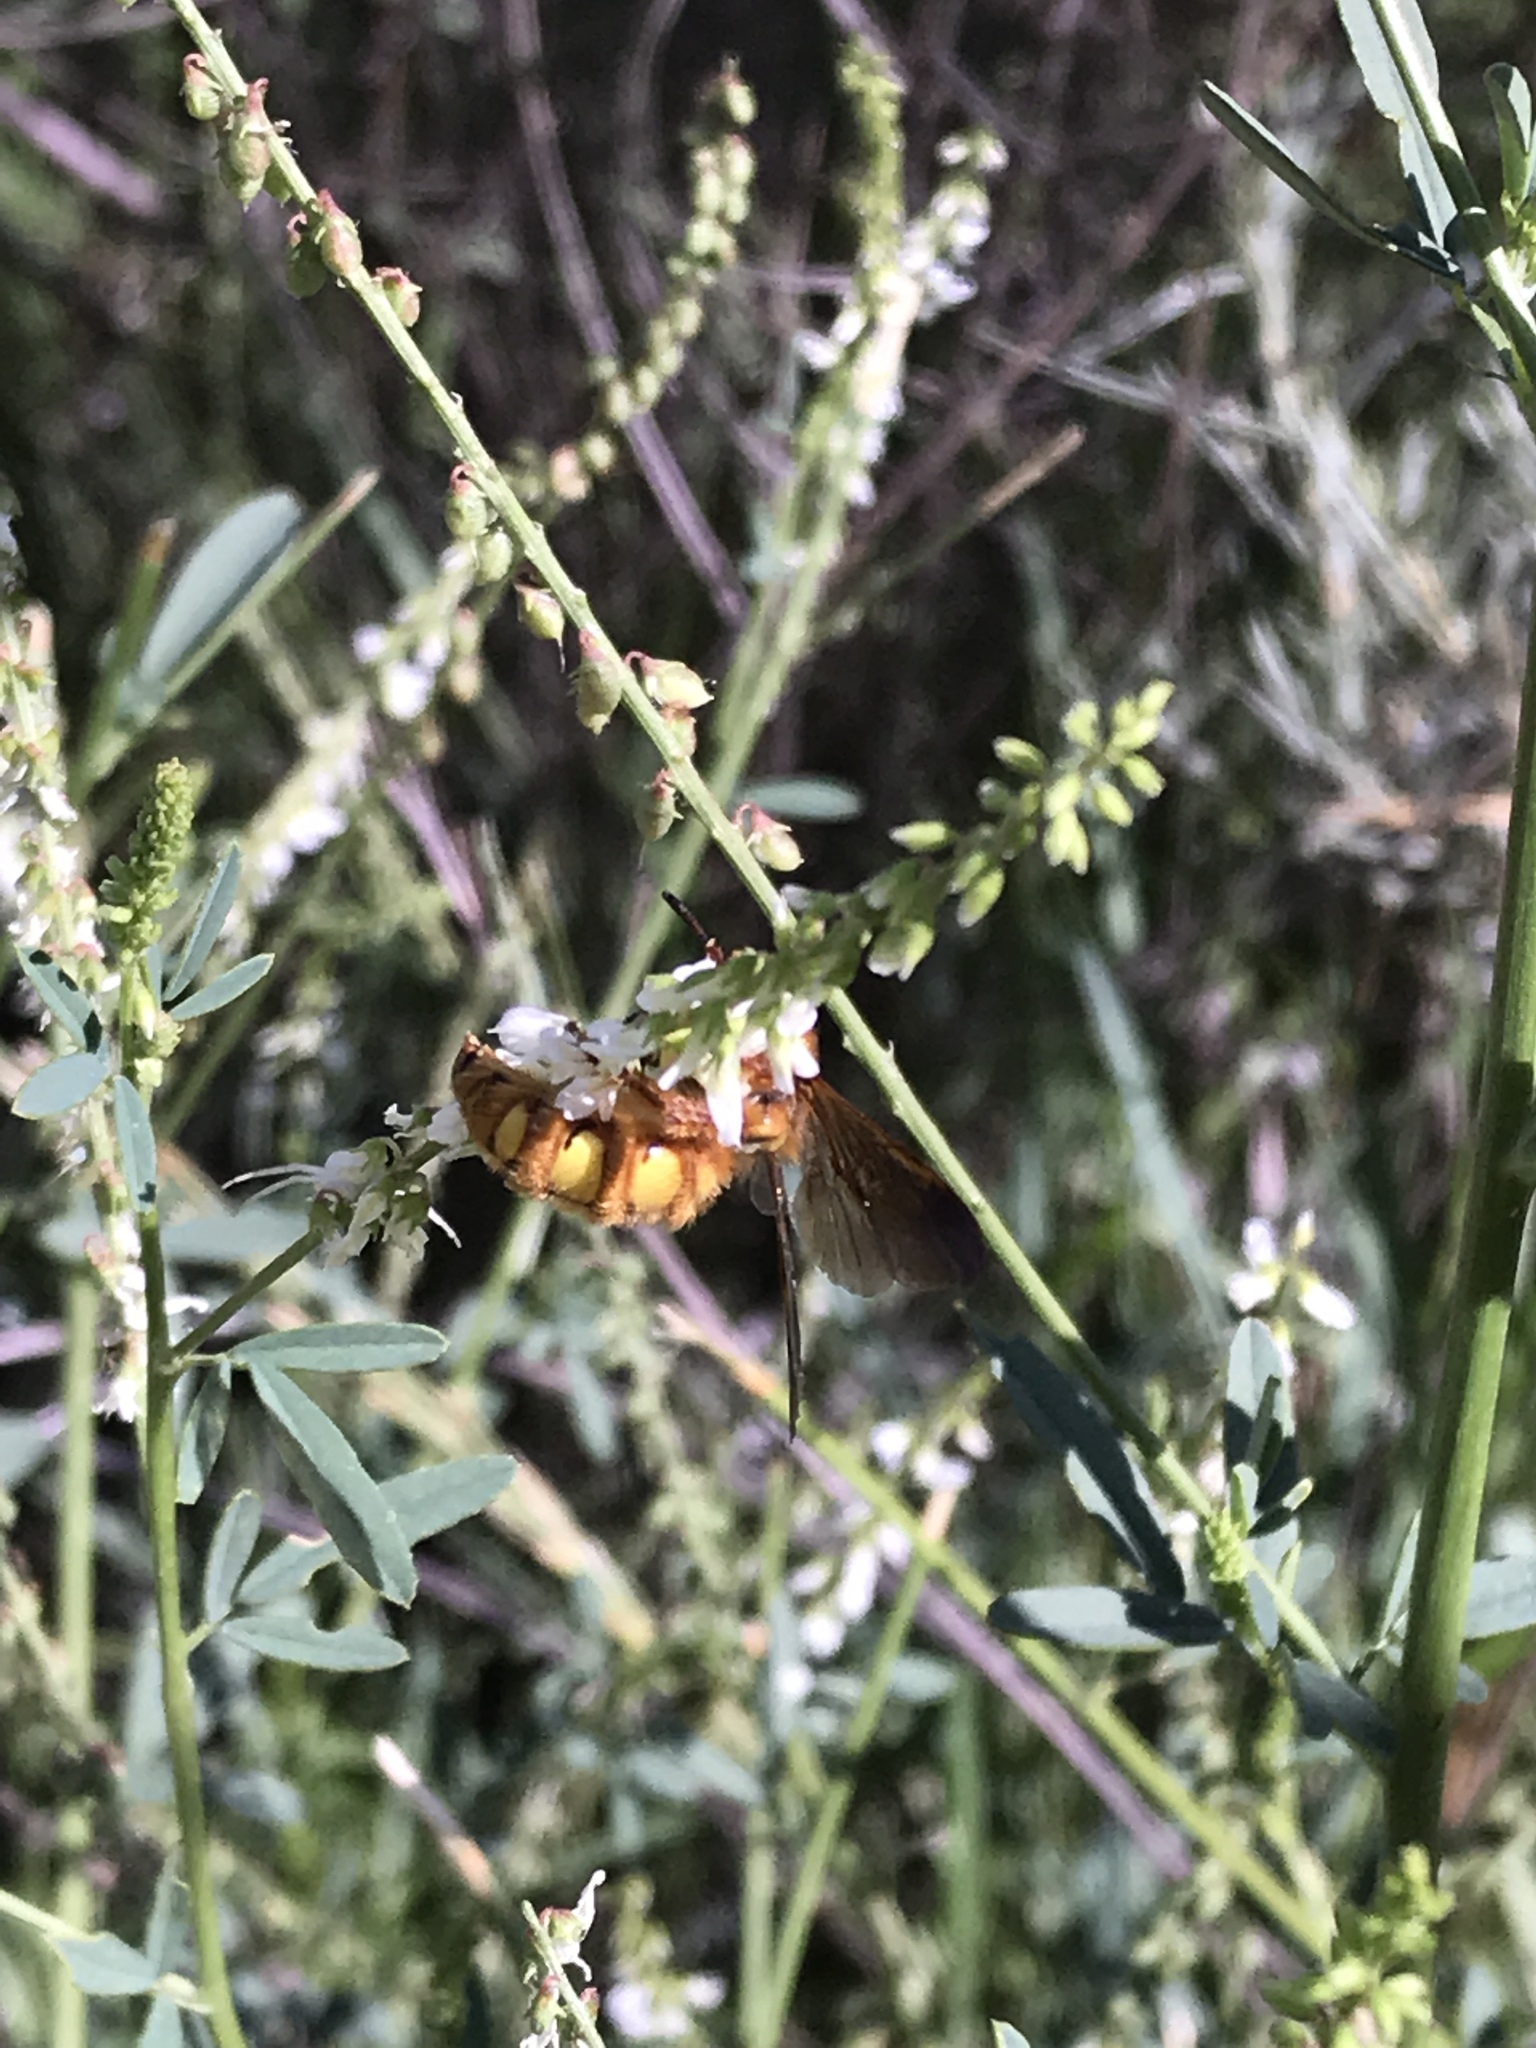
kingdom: Animalia
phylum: Arthropoda
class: Insecta
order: Hymenoptera
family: Sphecidae
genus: Crioscolia
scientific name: Crioscolia
